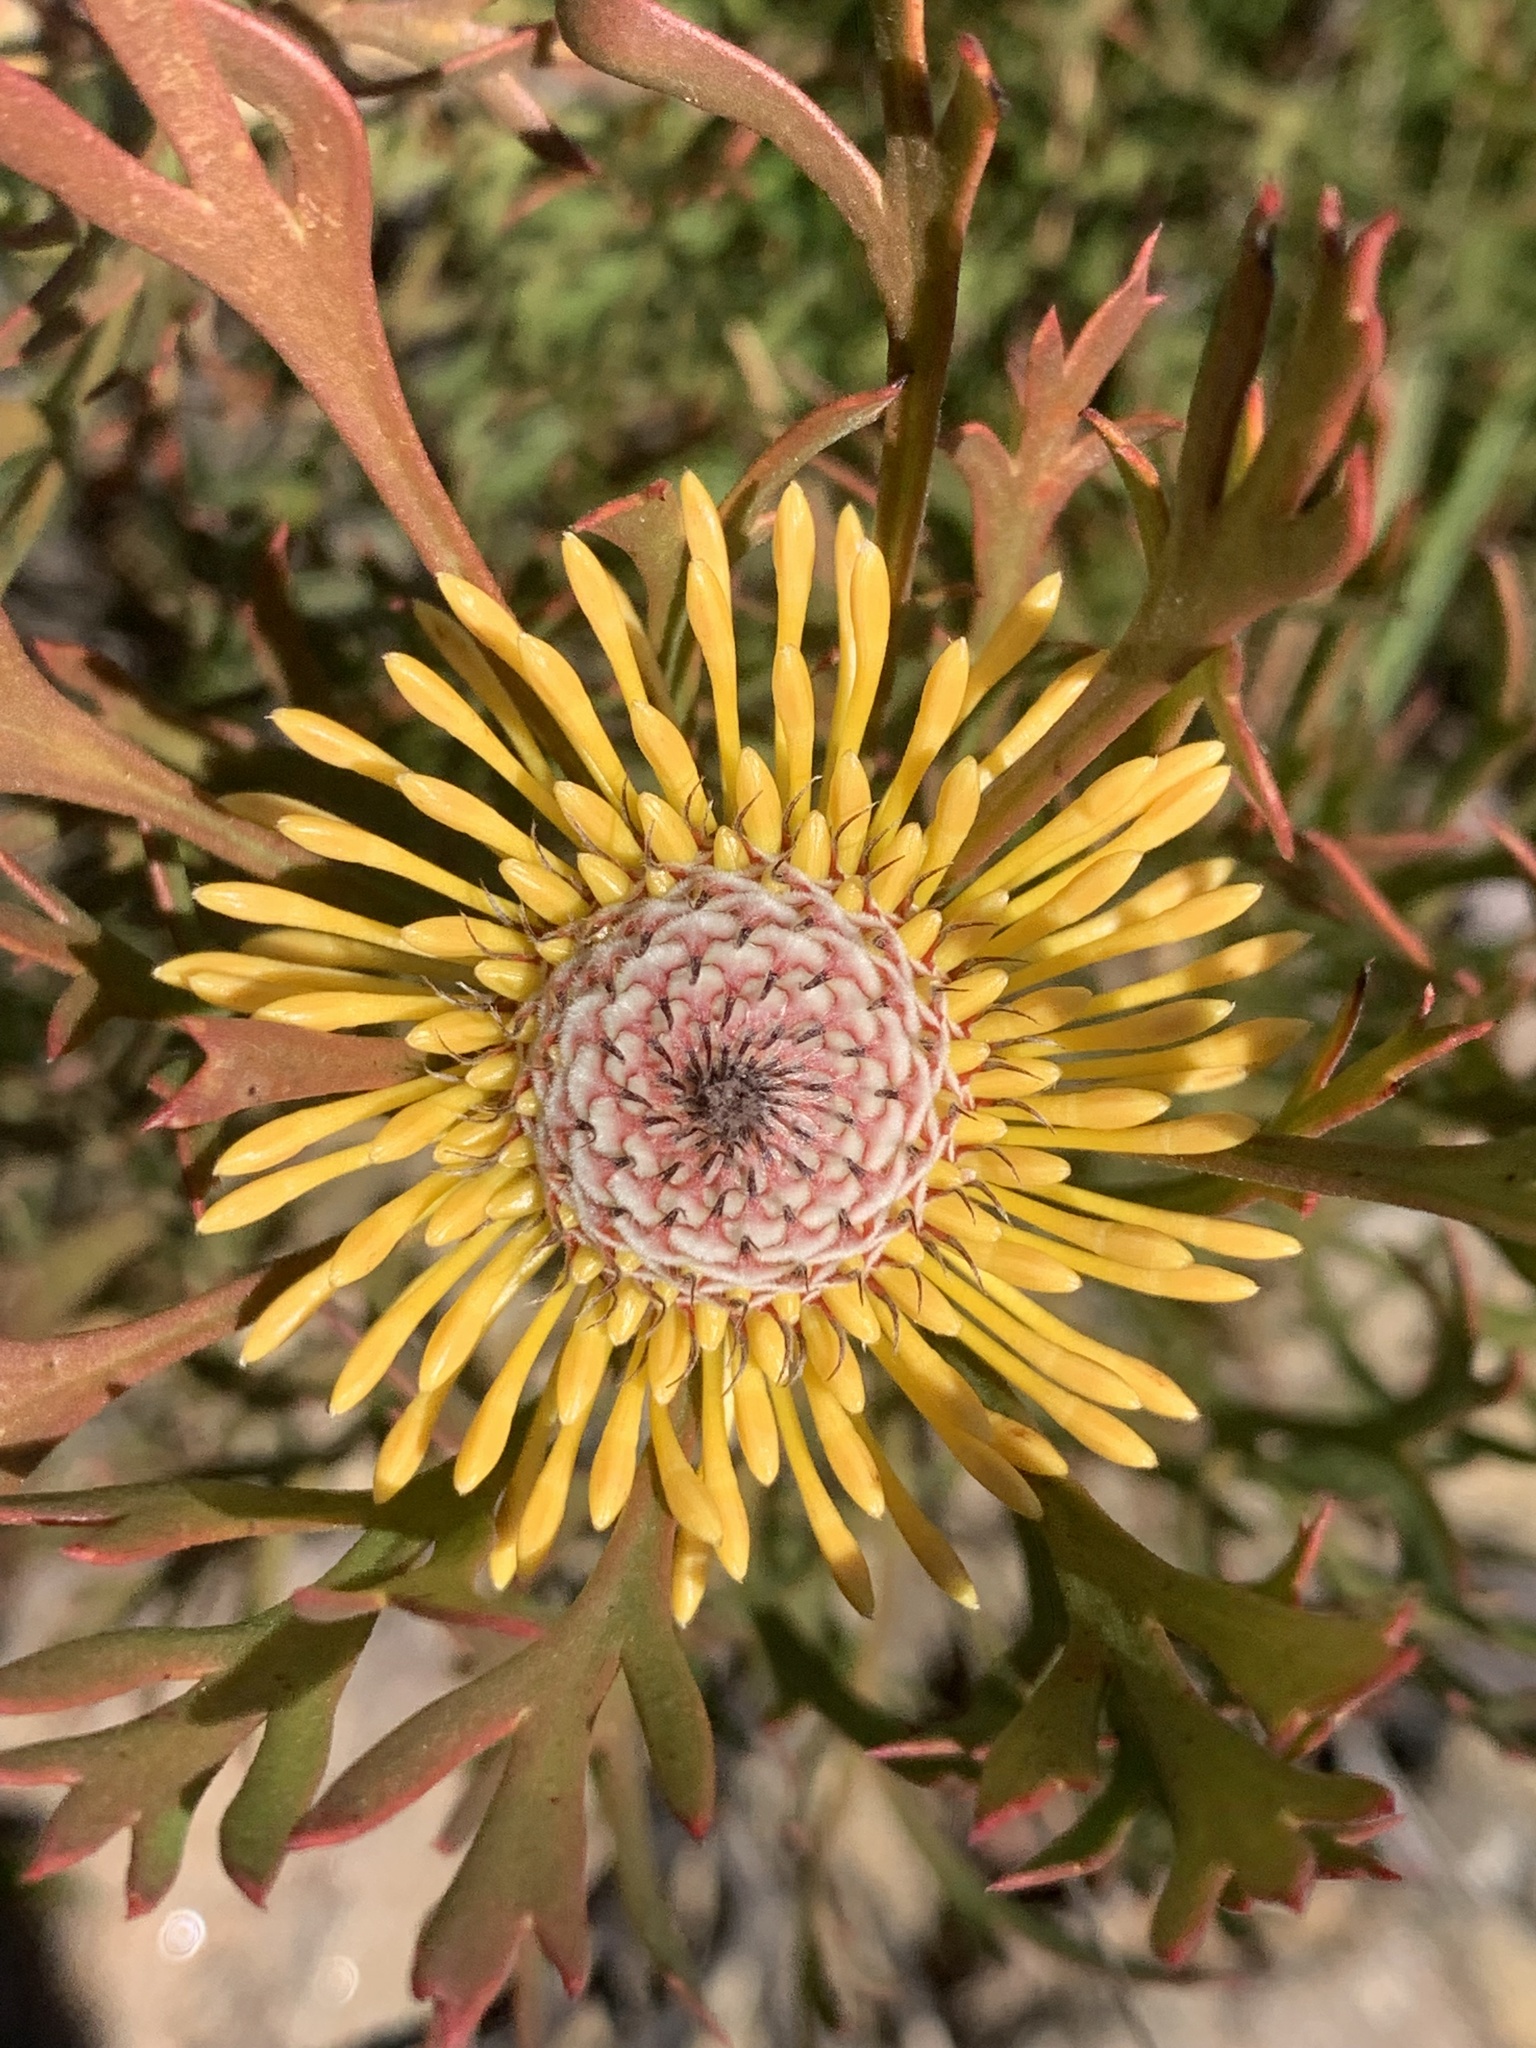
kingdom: Plantae
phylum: Tracheophyta
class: Magnoliopsida
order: Proteales
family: Proteaceae
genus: Isopogon
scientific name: Isopogon anemonifolius
